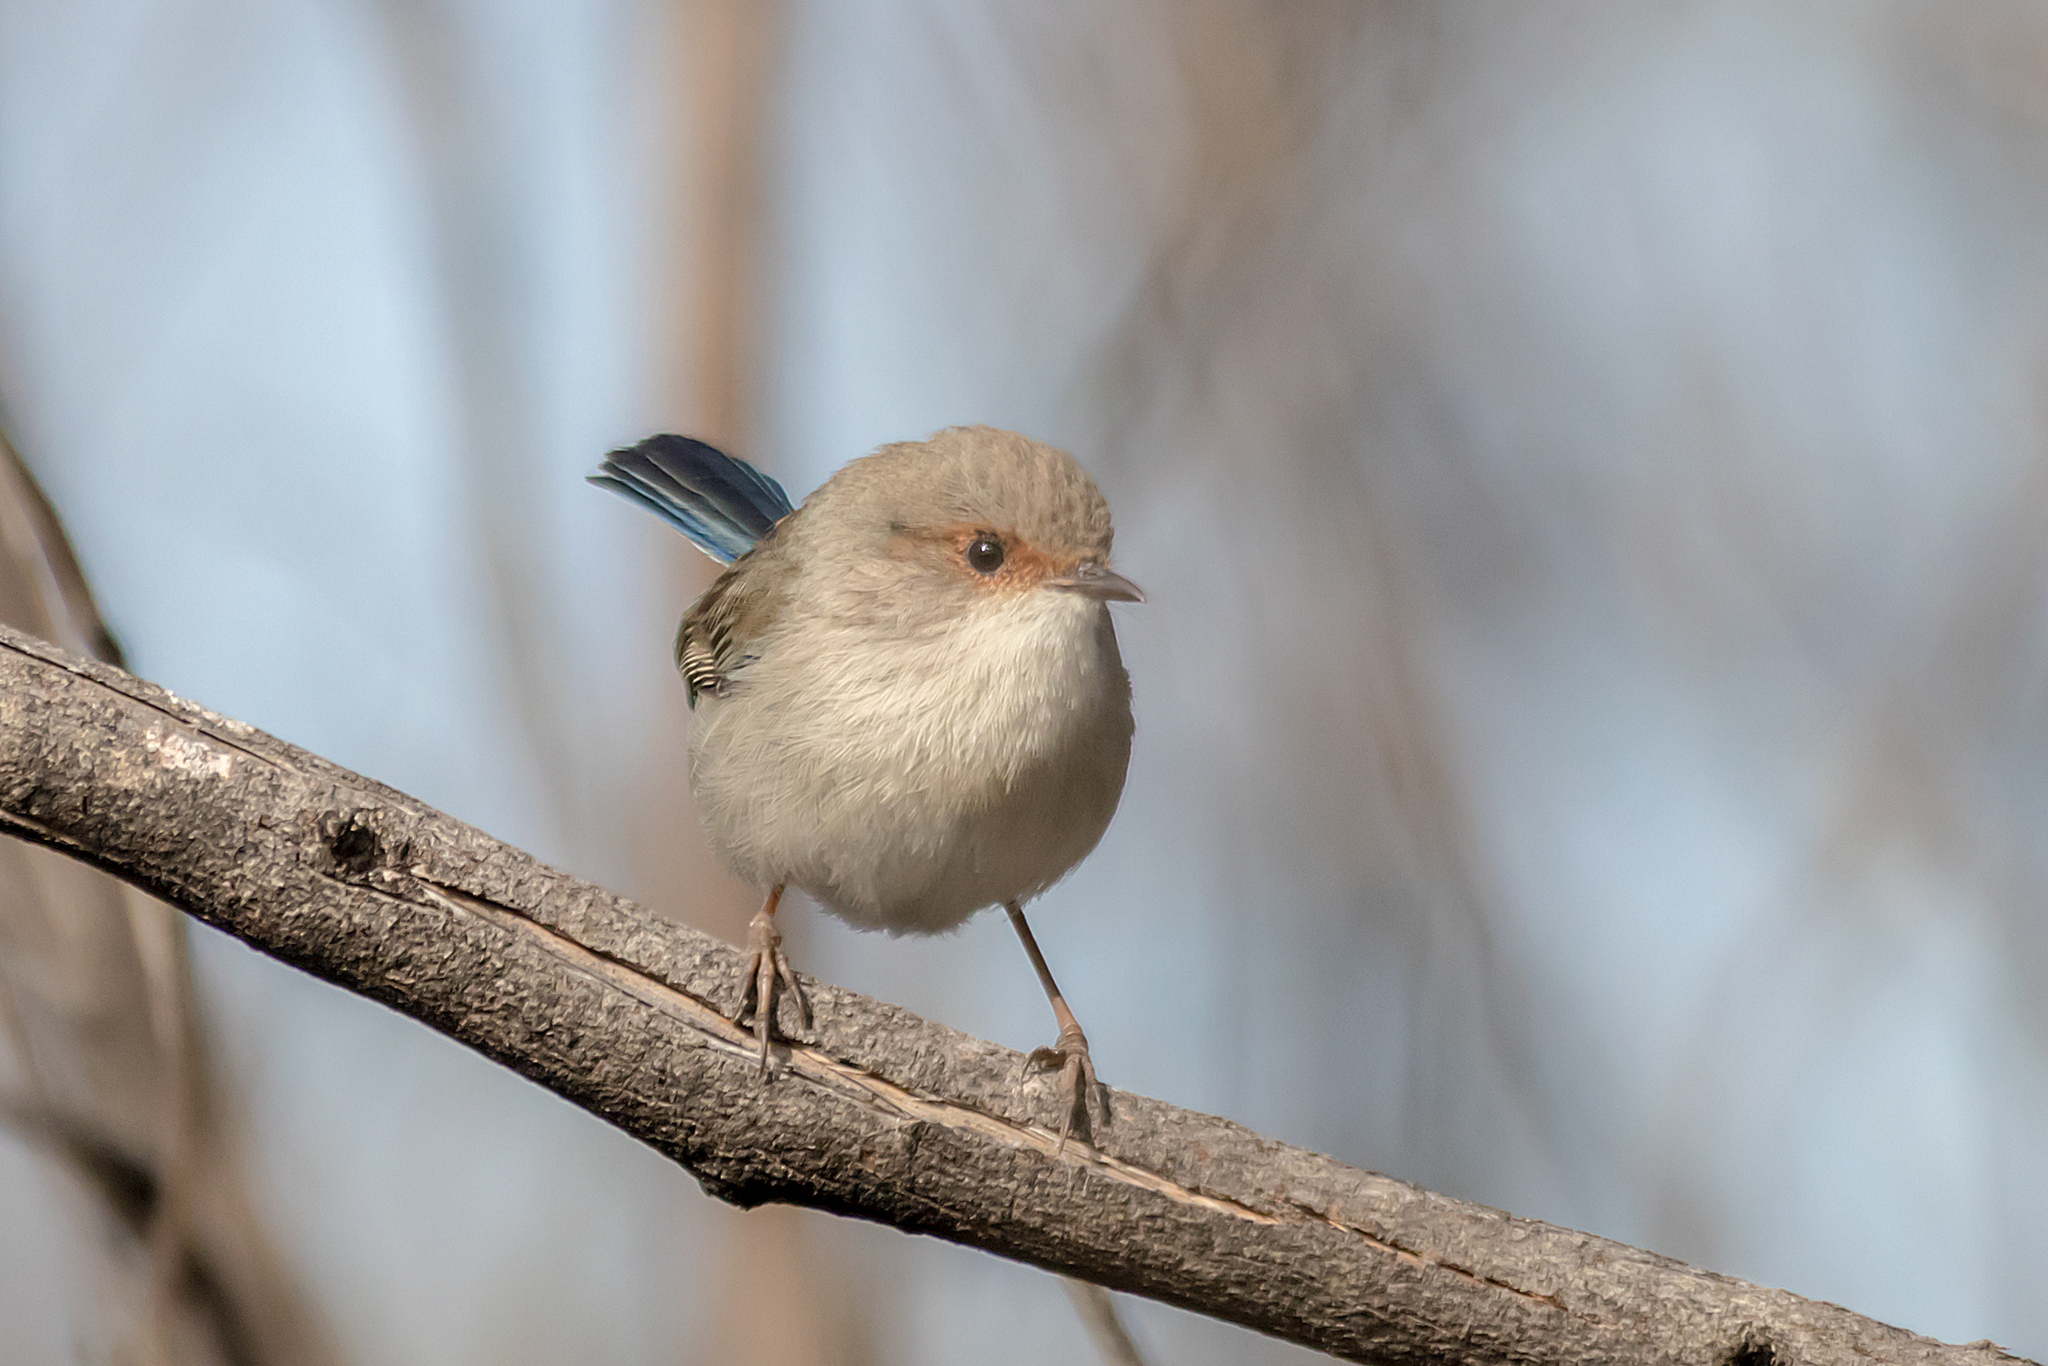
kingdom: Animalia
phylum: Chordata
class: Aves
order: Passeriformes
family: Maluridae
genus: Malurus
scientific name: Malurus cyaneus
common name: Superb fairywren
